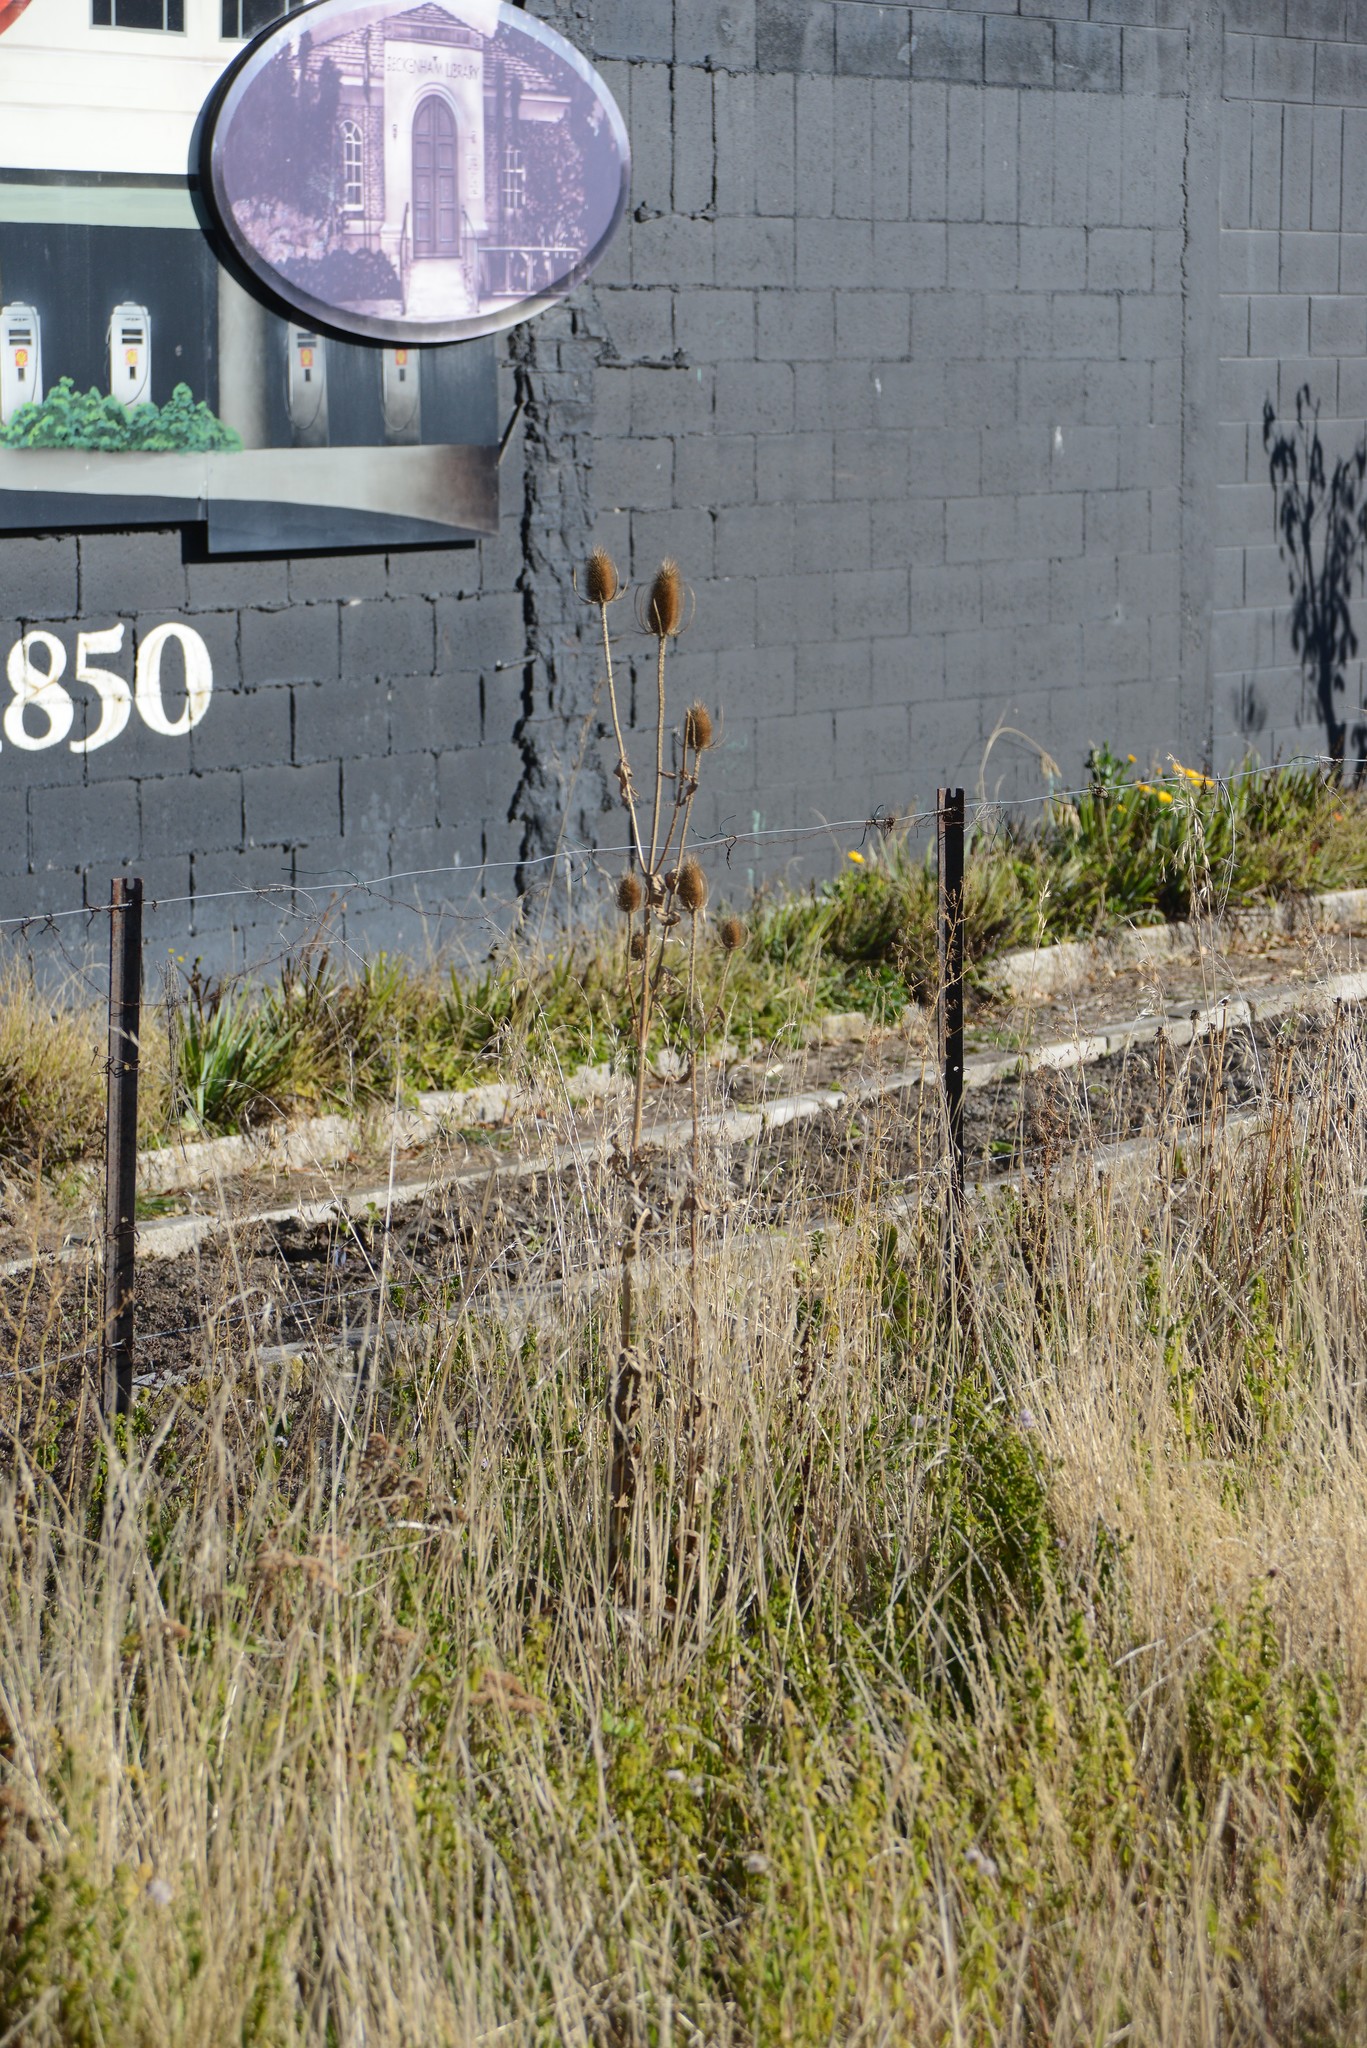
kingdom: Plantae
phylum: Tracheophyta
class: Magnoliopsida
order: Dipsacales
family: Caprifoliaceae
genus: Dipsacus
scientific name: Dipsacus fullonum
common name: Teasel
